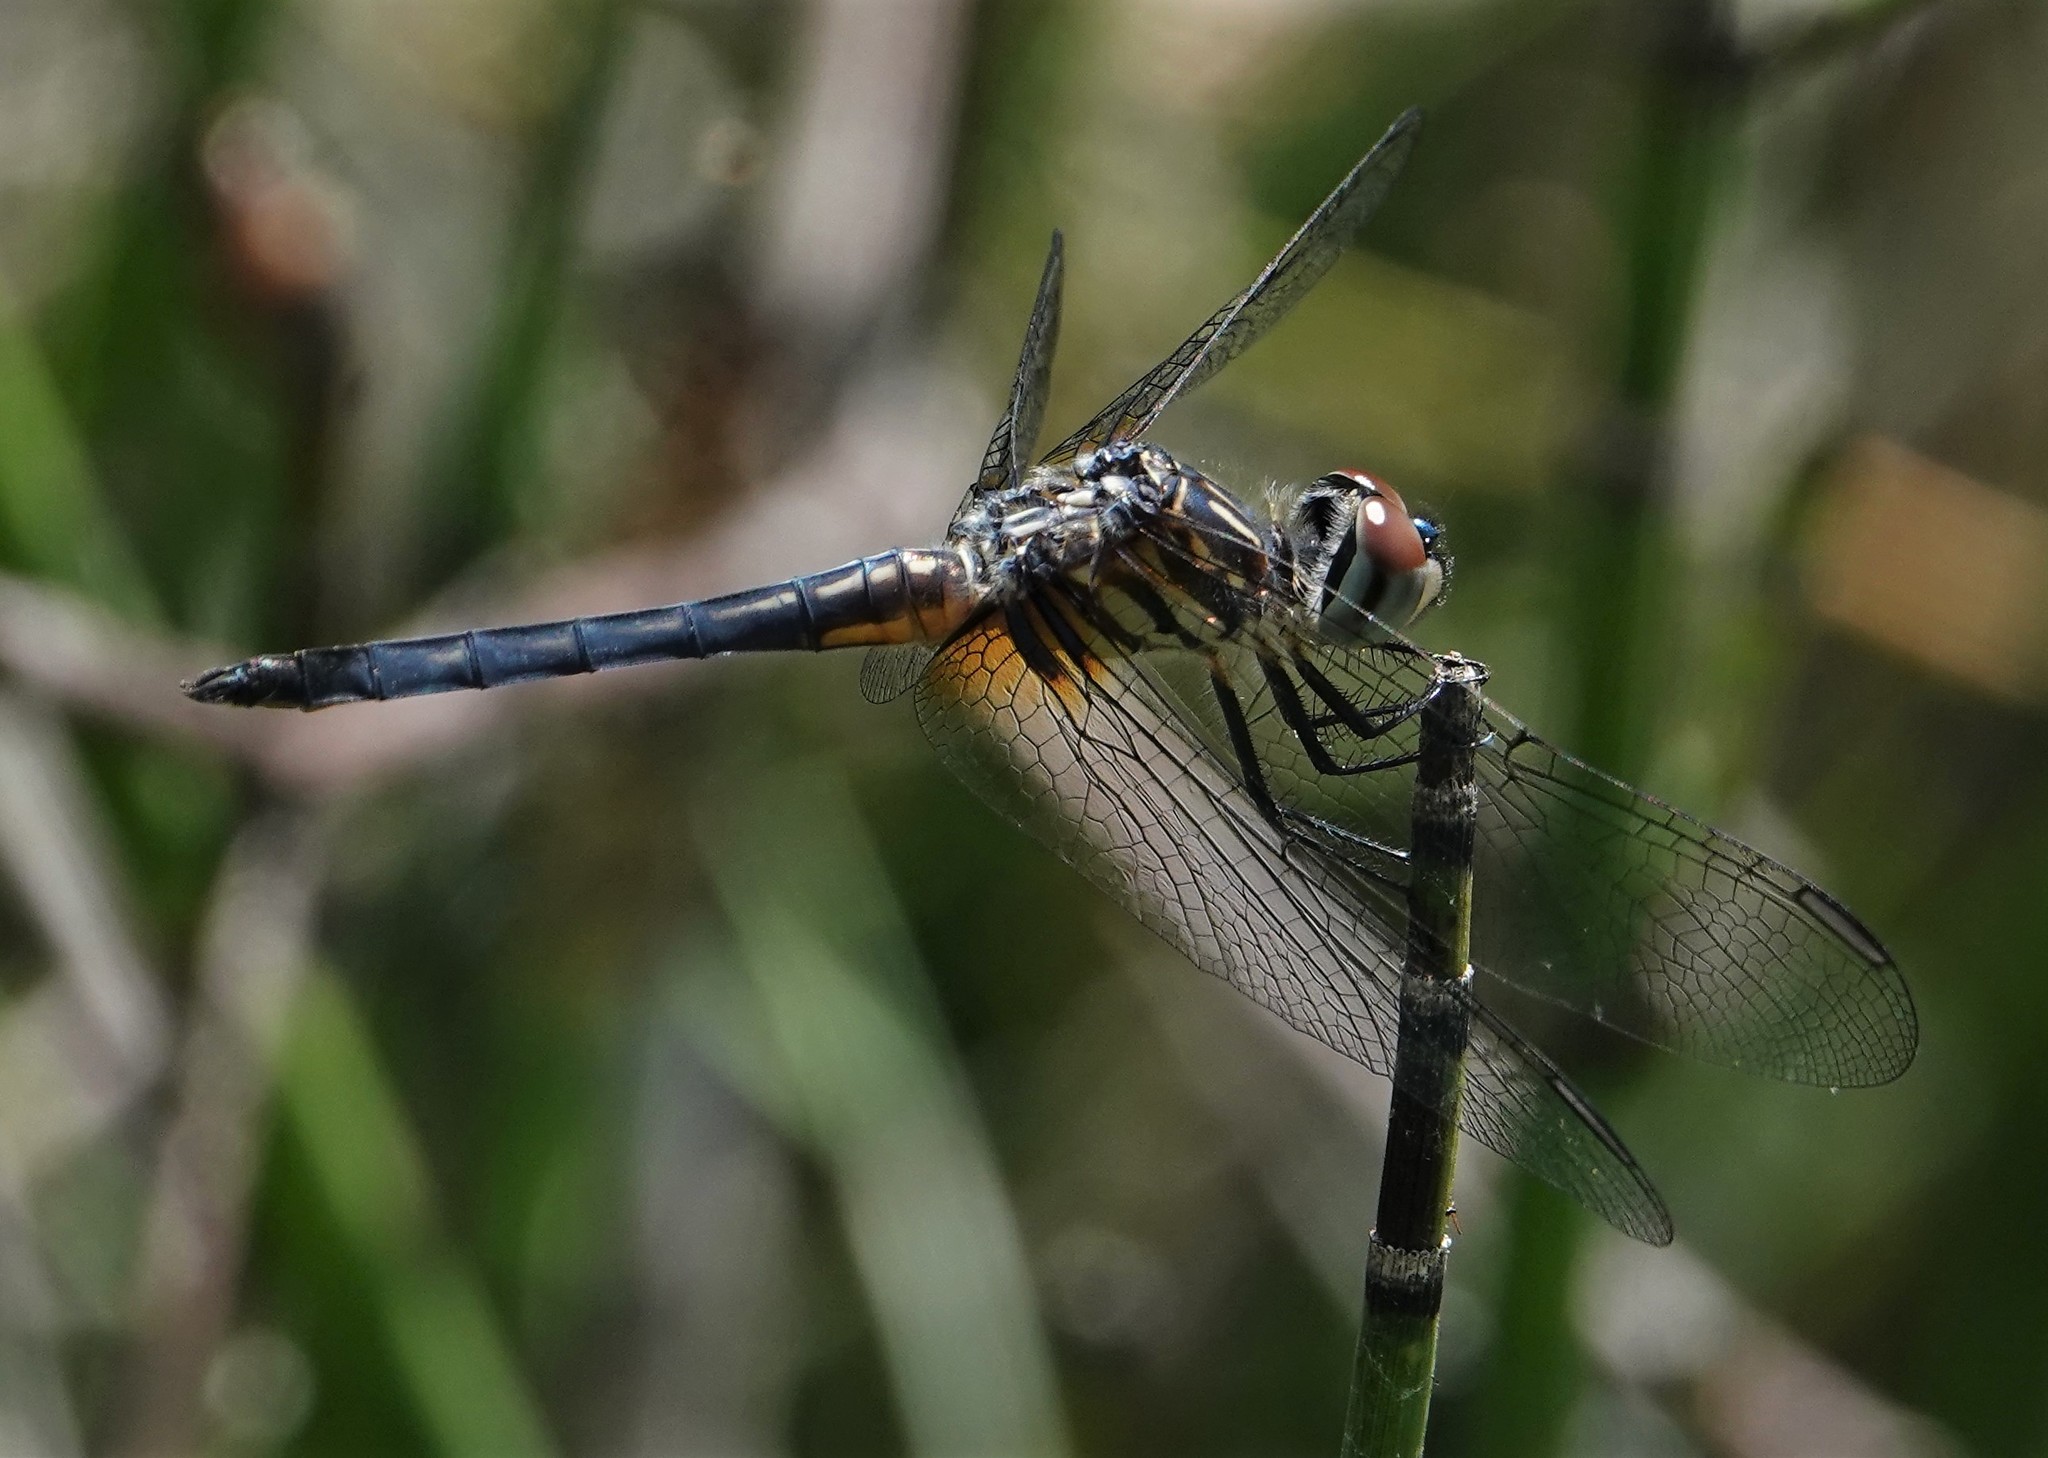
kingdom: Animalia
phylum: Arthropoda
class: Insecta
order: Odonata
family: Libellulidae
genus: Pachydiplax
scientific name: Pachydiplax longipennis
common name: Blue dasher
